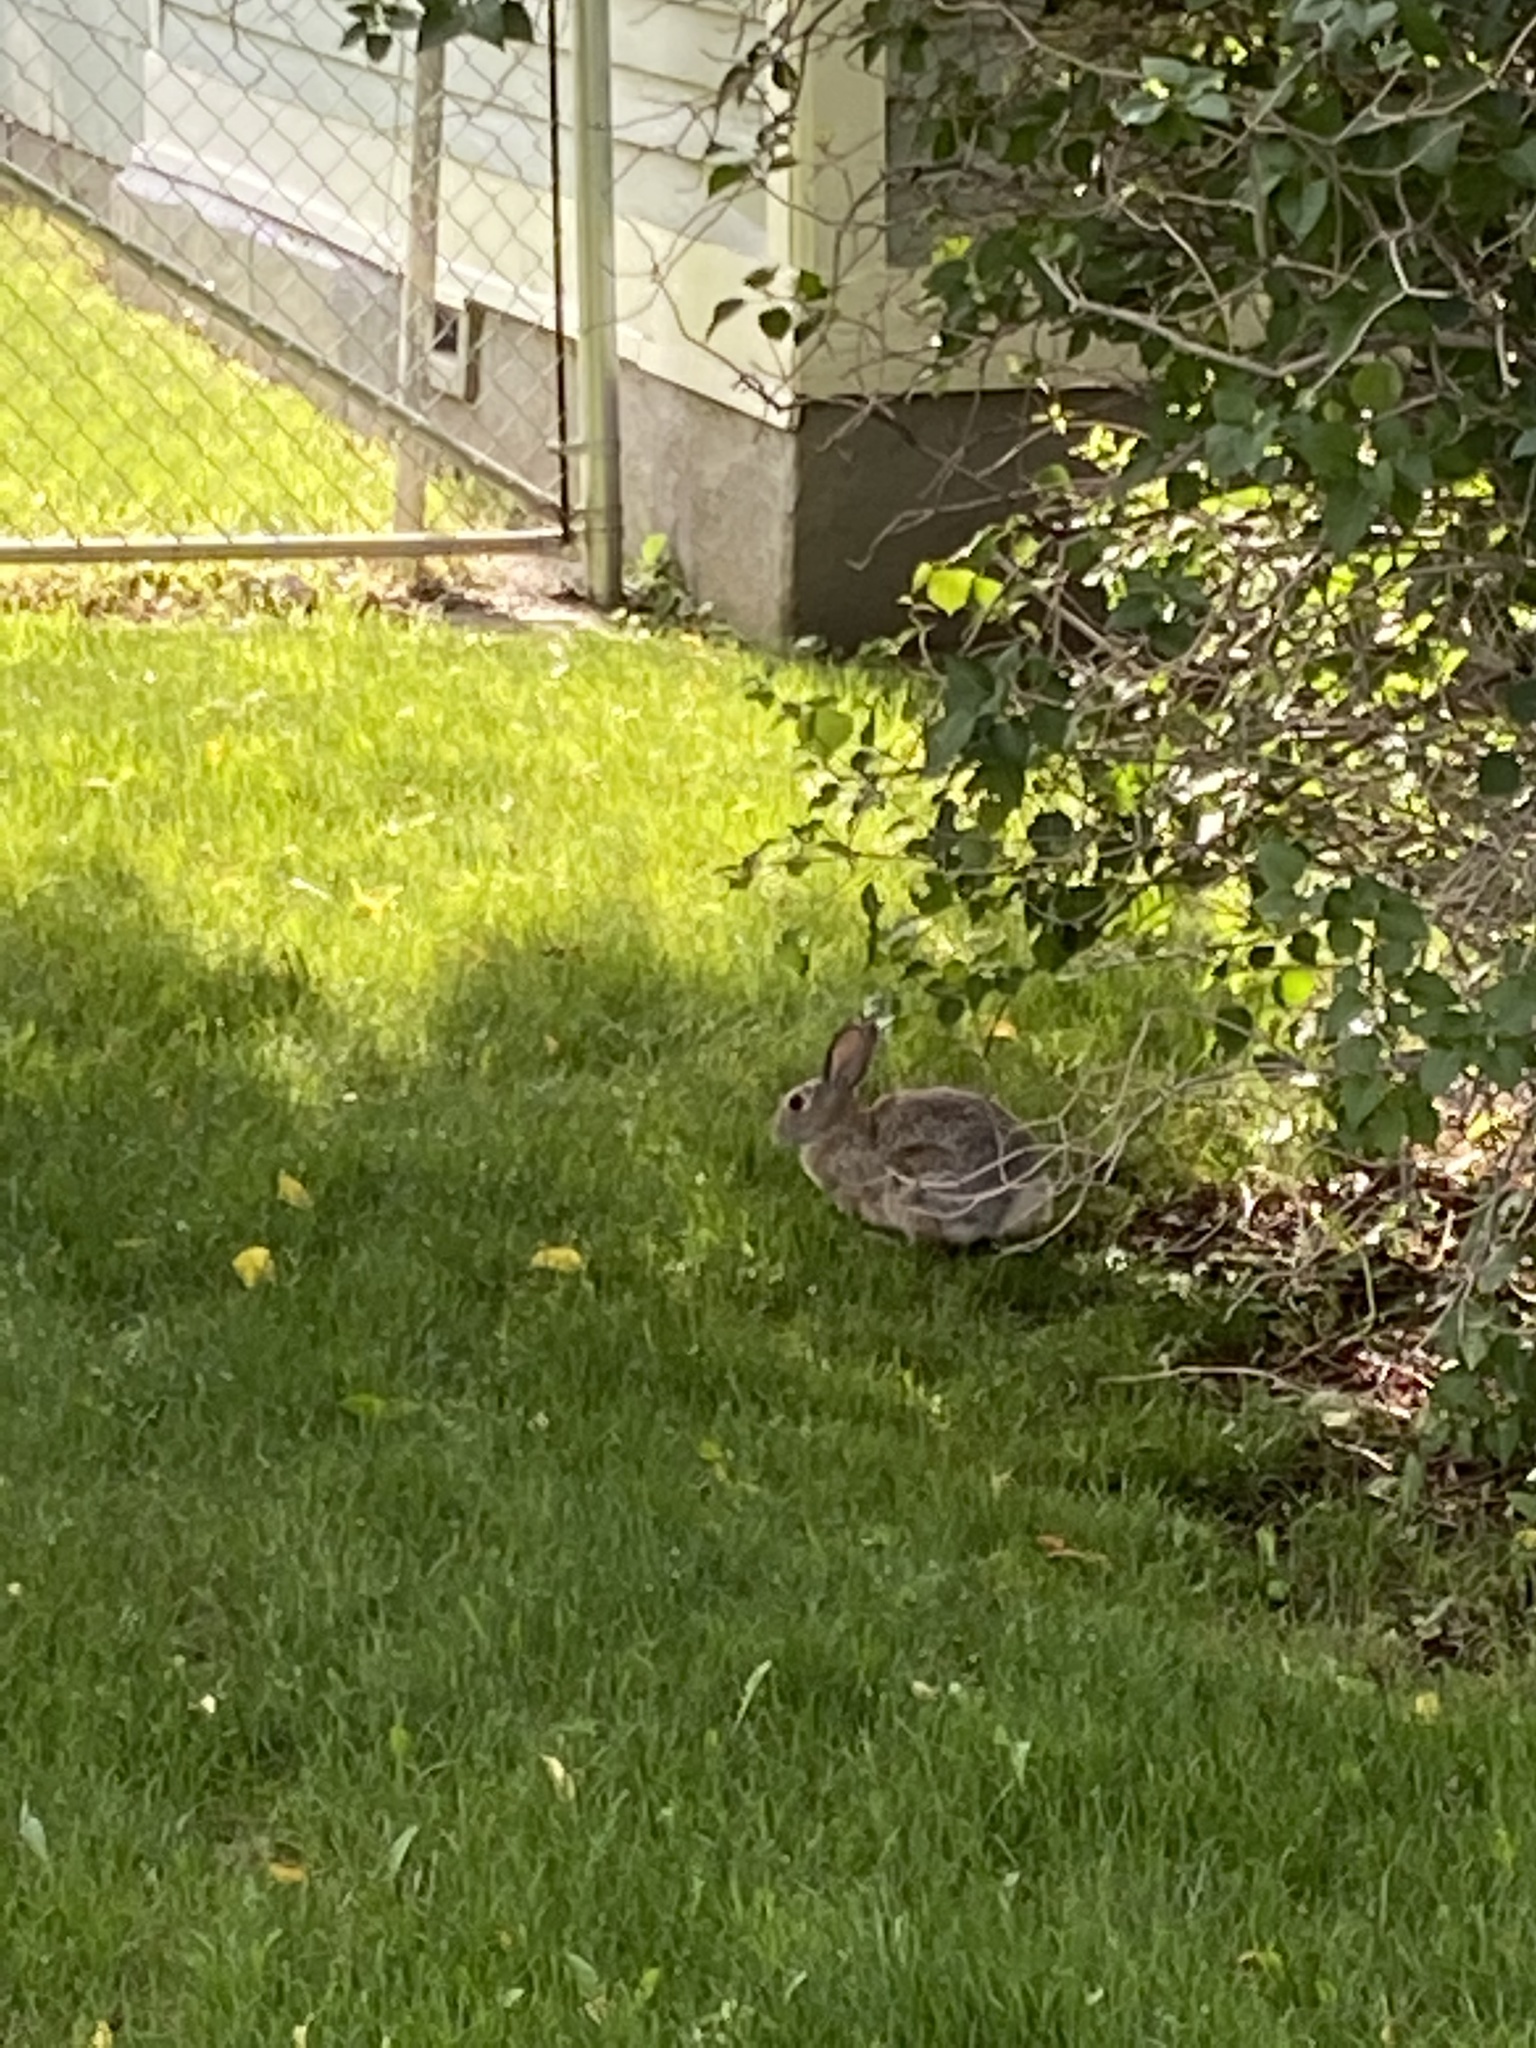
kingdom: Animalia
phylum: Chordata
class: Mammalia
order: Lagomorpha
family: Leporidae
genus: Sylvilagus
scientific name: Sylvilagus nuttallii
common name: Mountain cottontail
